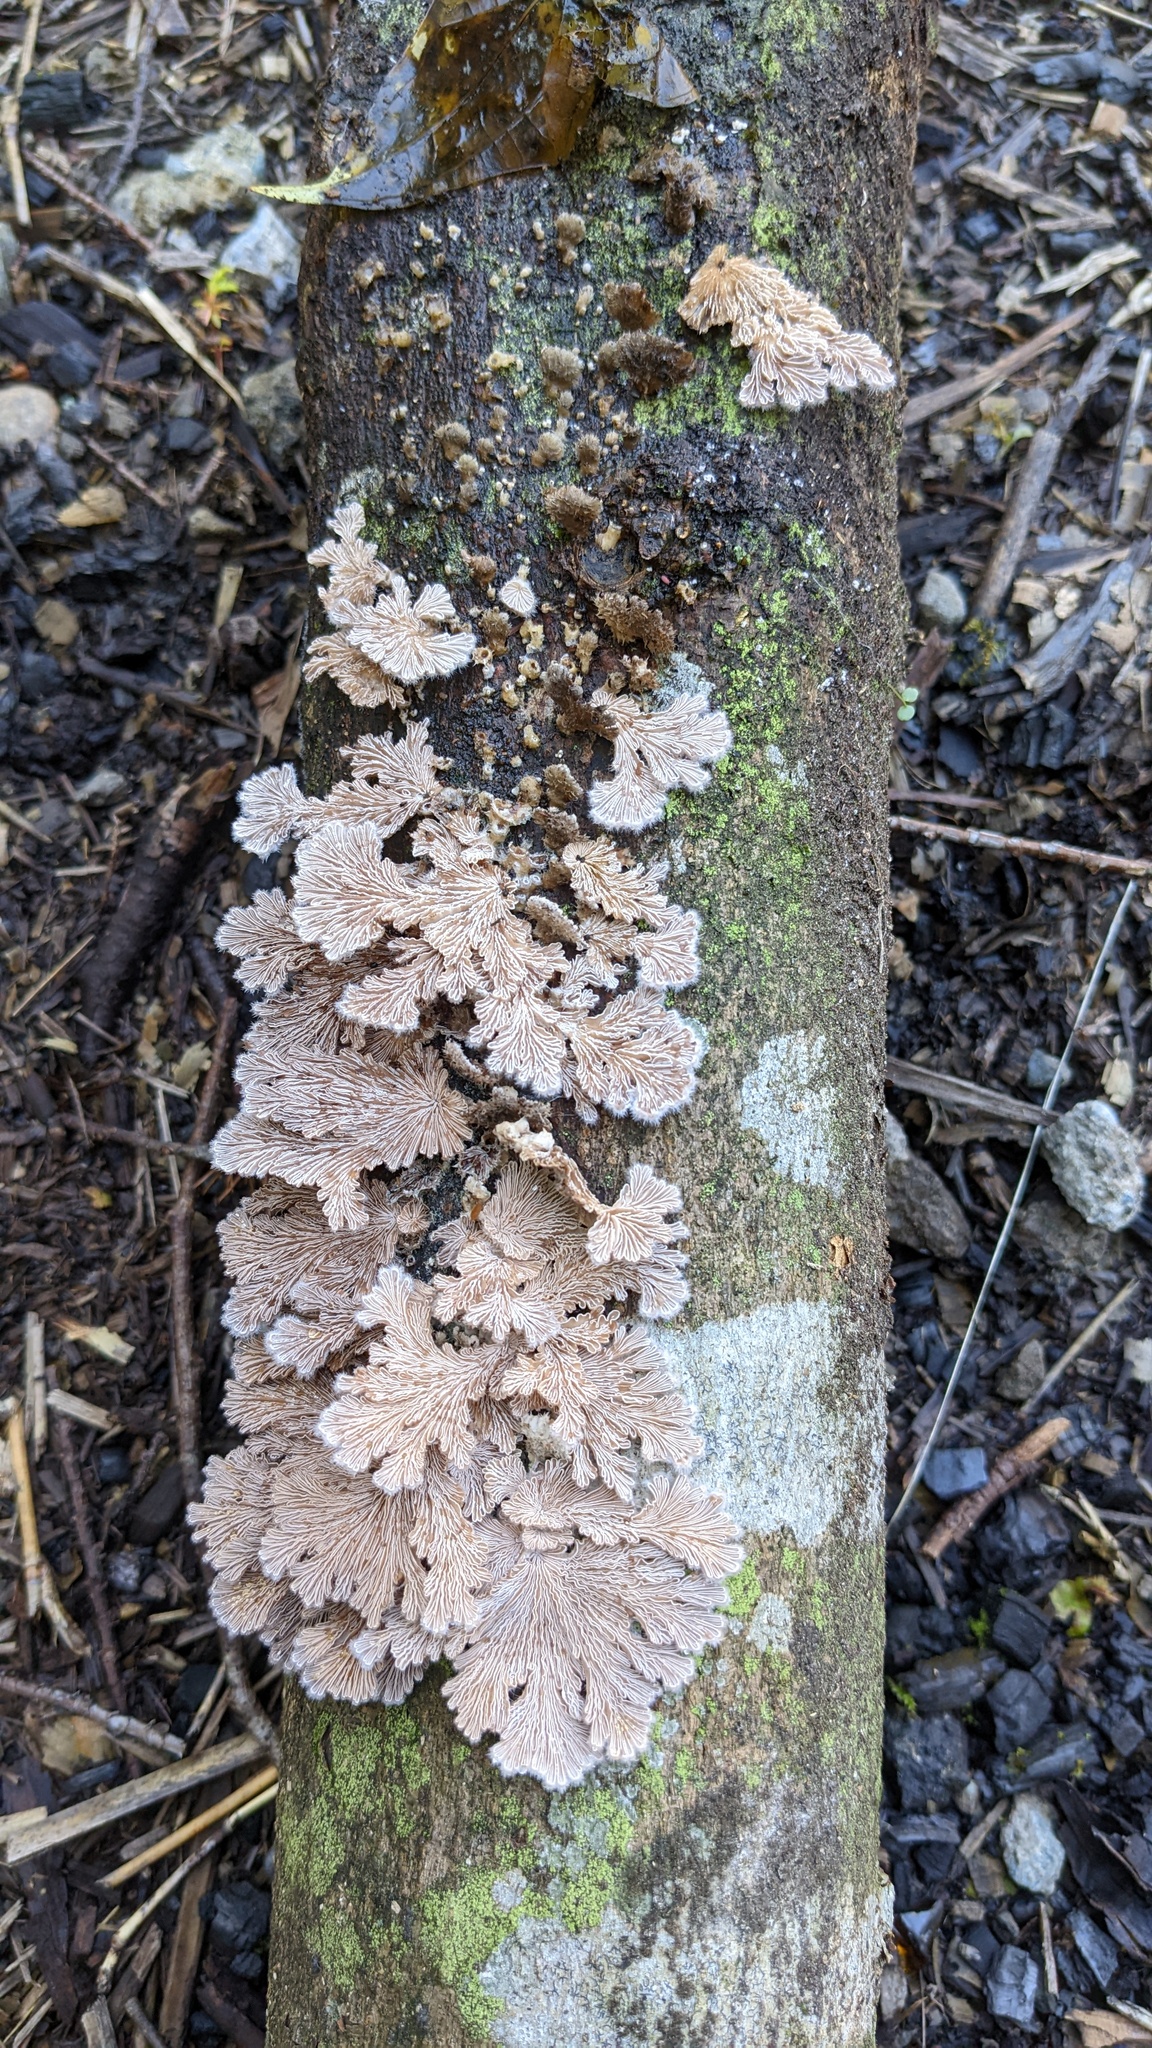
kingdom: Fungi
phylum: Basidiomycota
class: Agaricomycetes
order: Agaricales
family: Schizophyllaceae
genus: Schizophyllum
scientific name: Schizophyllum commune
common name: Common porecrust
